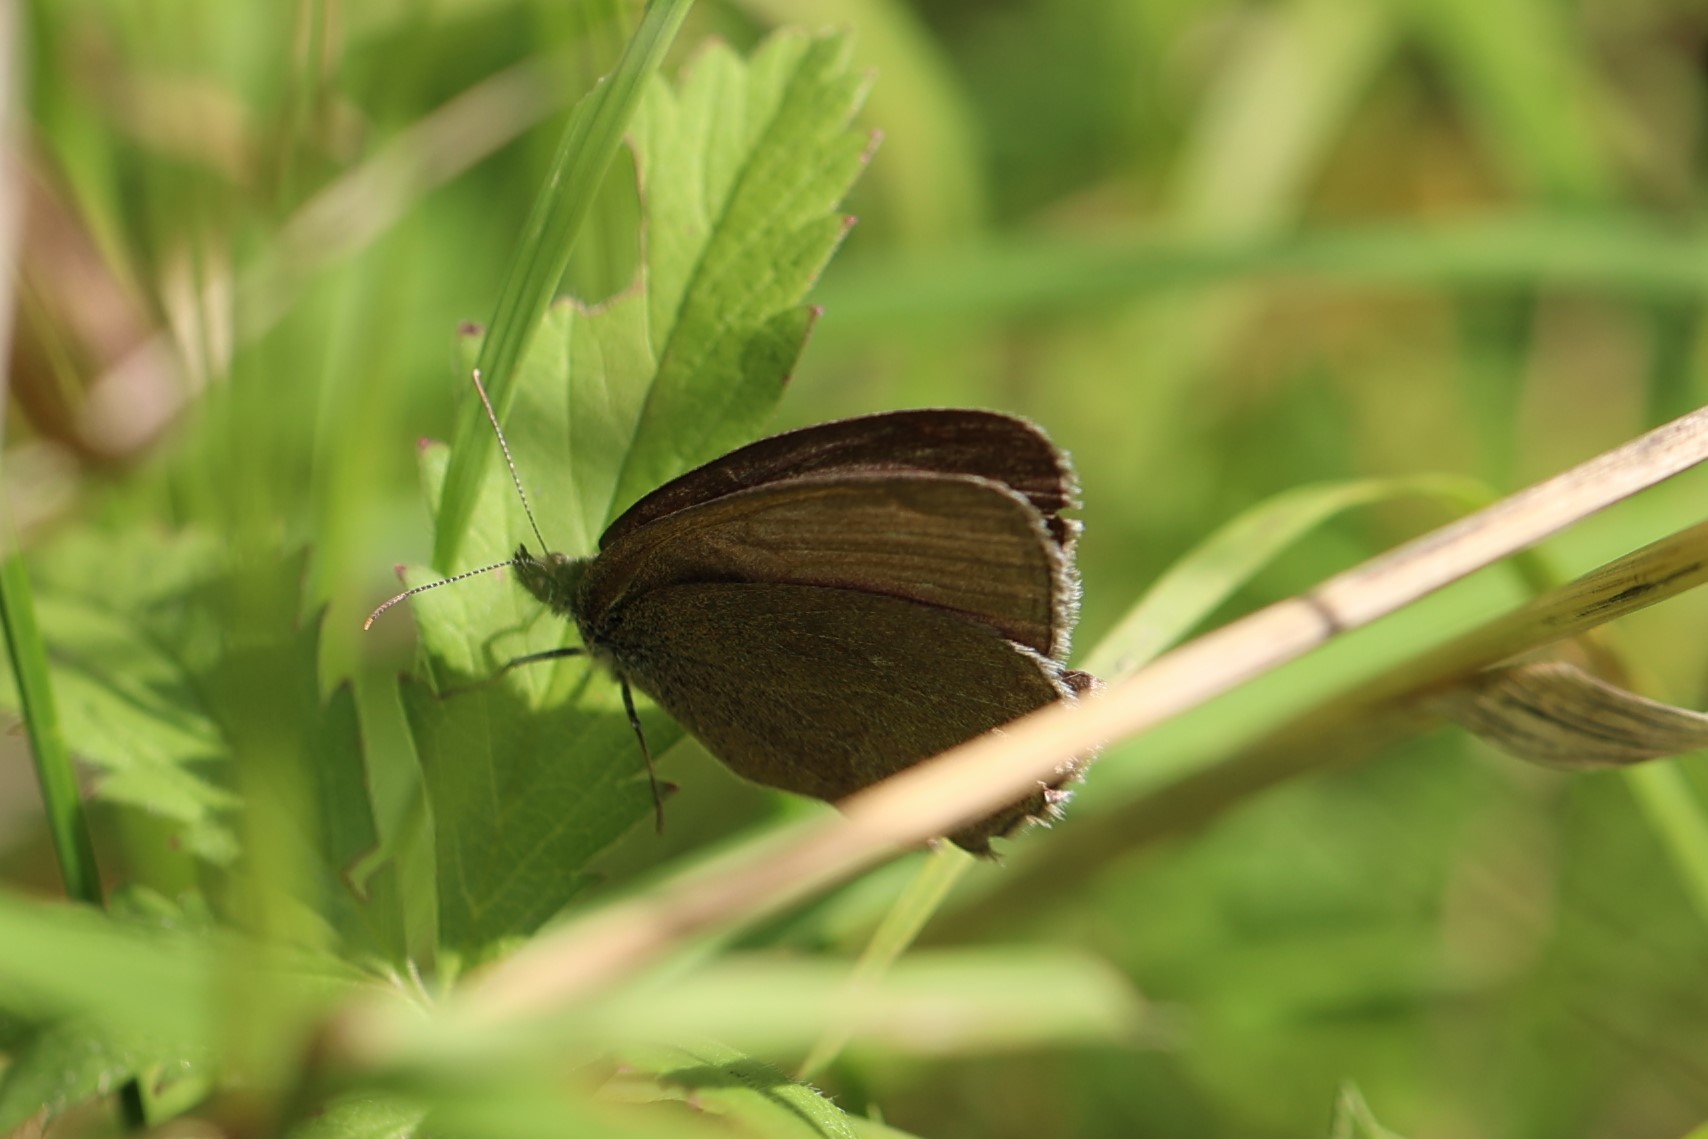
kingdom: Animalia
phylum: Arthropoda
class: Insecta
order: Lepidoptera
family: Nymphalidae
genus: Aphantopus
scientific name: Aphantopus hyperantus
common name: Ringlet
